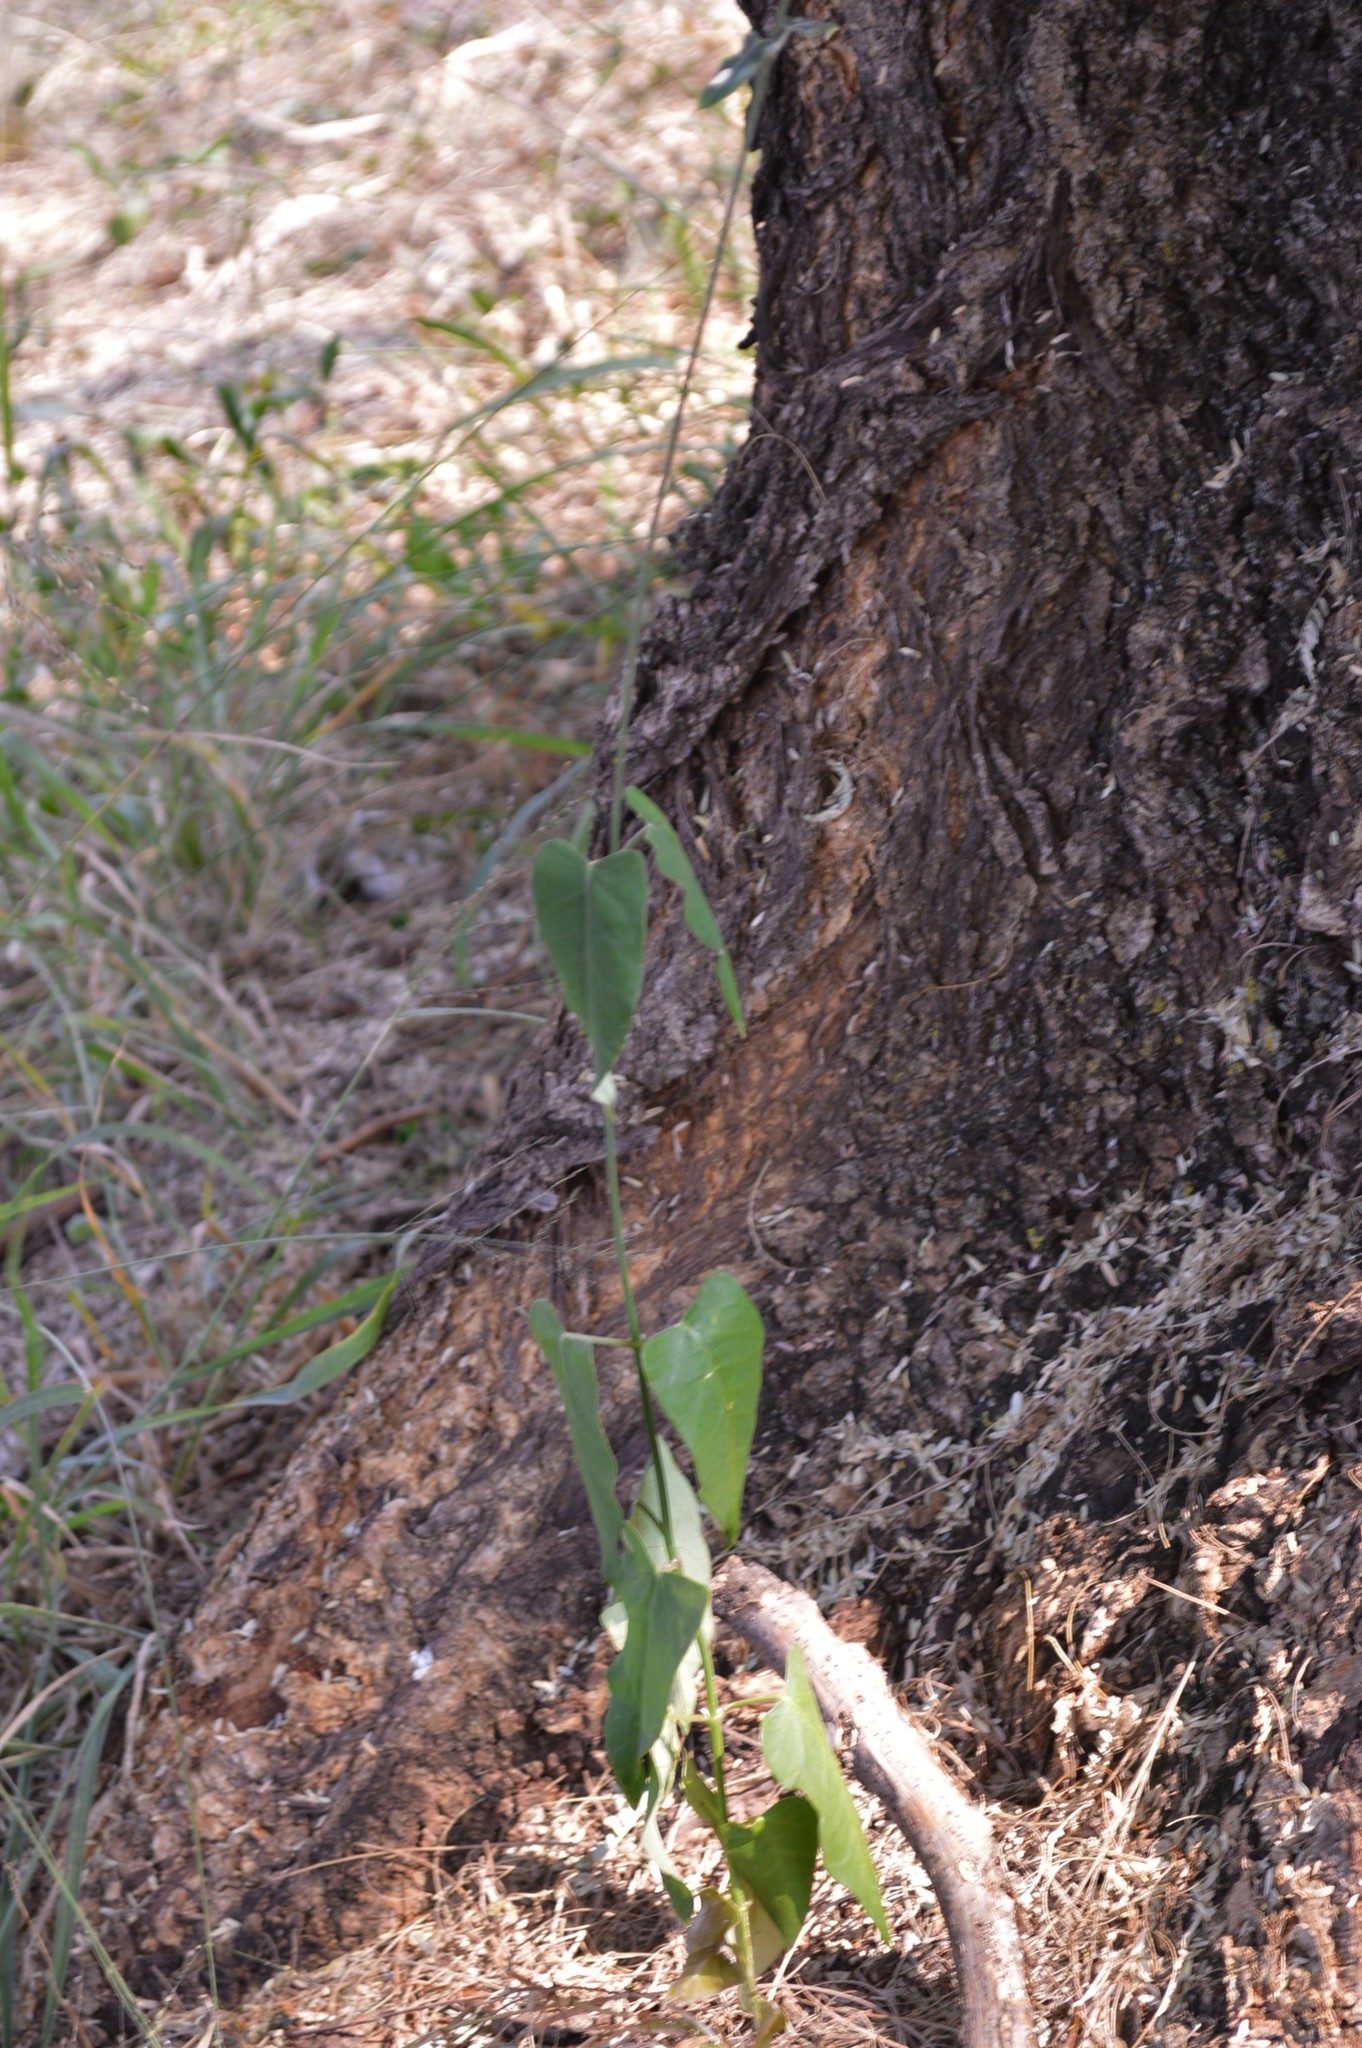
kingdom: Plantae
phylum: Tracheophyta
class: Magnoliopsida
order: Gentianales
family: Apocynaceae
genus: Cynanchum
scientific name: Cynanchum
